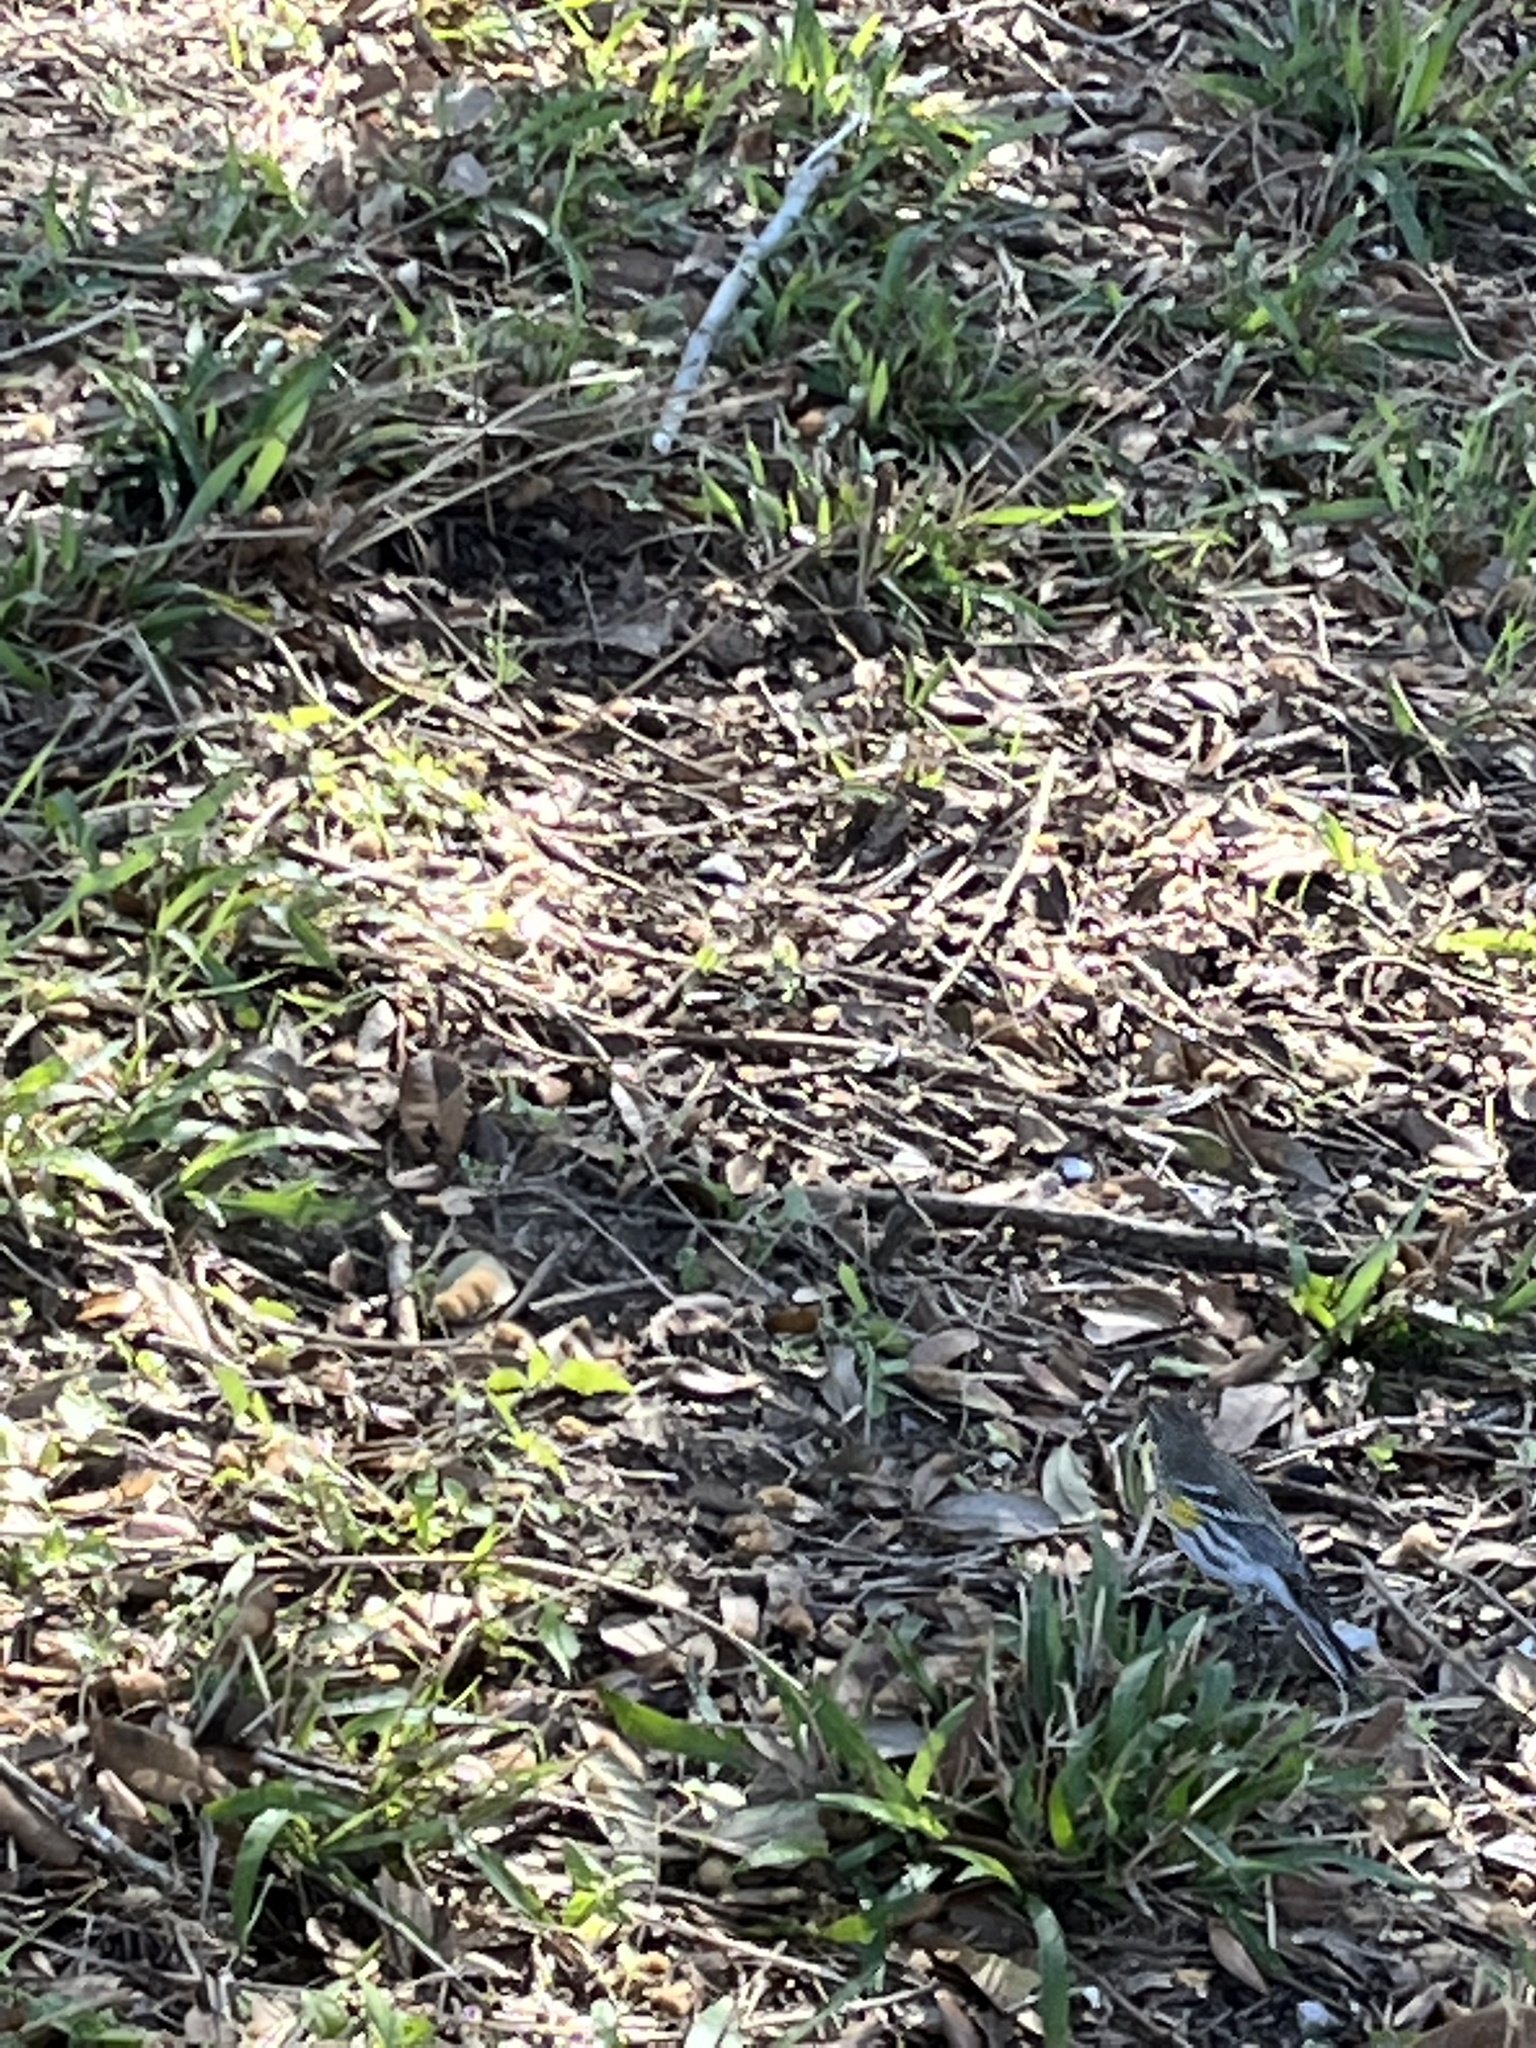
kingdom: Animalia
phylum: Chordata
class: Aves
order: Passeriformes
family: Parulidae
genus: Setophaga
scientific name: Setophaga coronata
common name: Myrtle warbler
